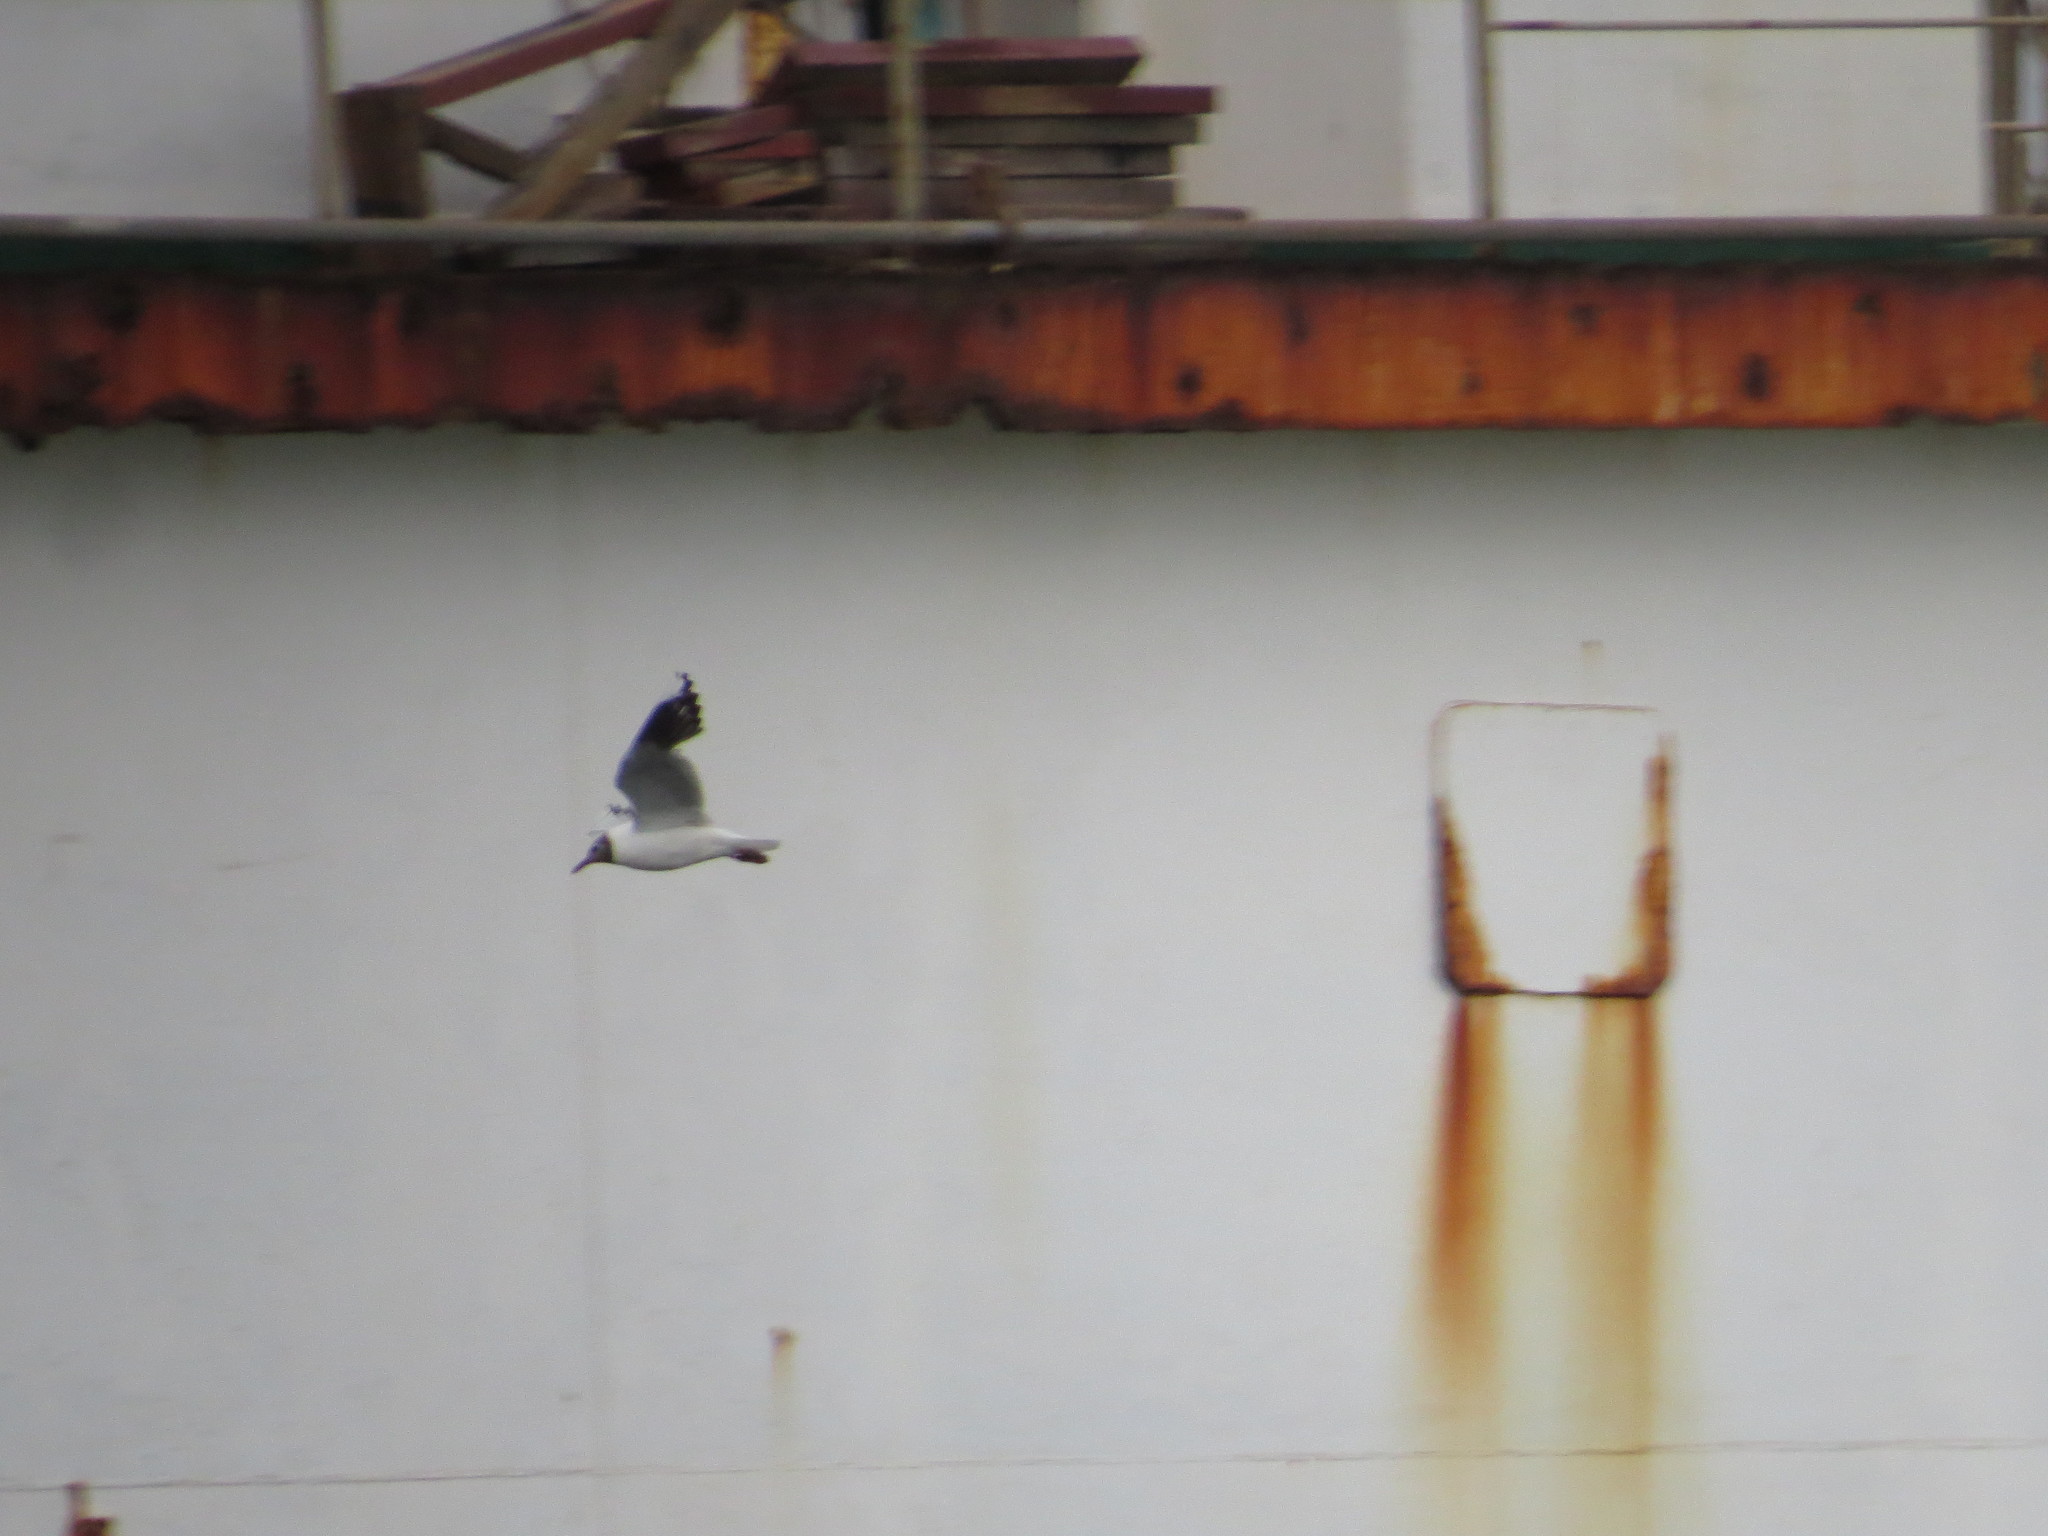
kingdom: Animalia
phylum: Chordata
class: Aves
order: Charadriiformes
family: Laridae
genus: Chroicocephalus
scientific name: Chroicocephalus maculipennis
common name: Brown-hooded gull
